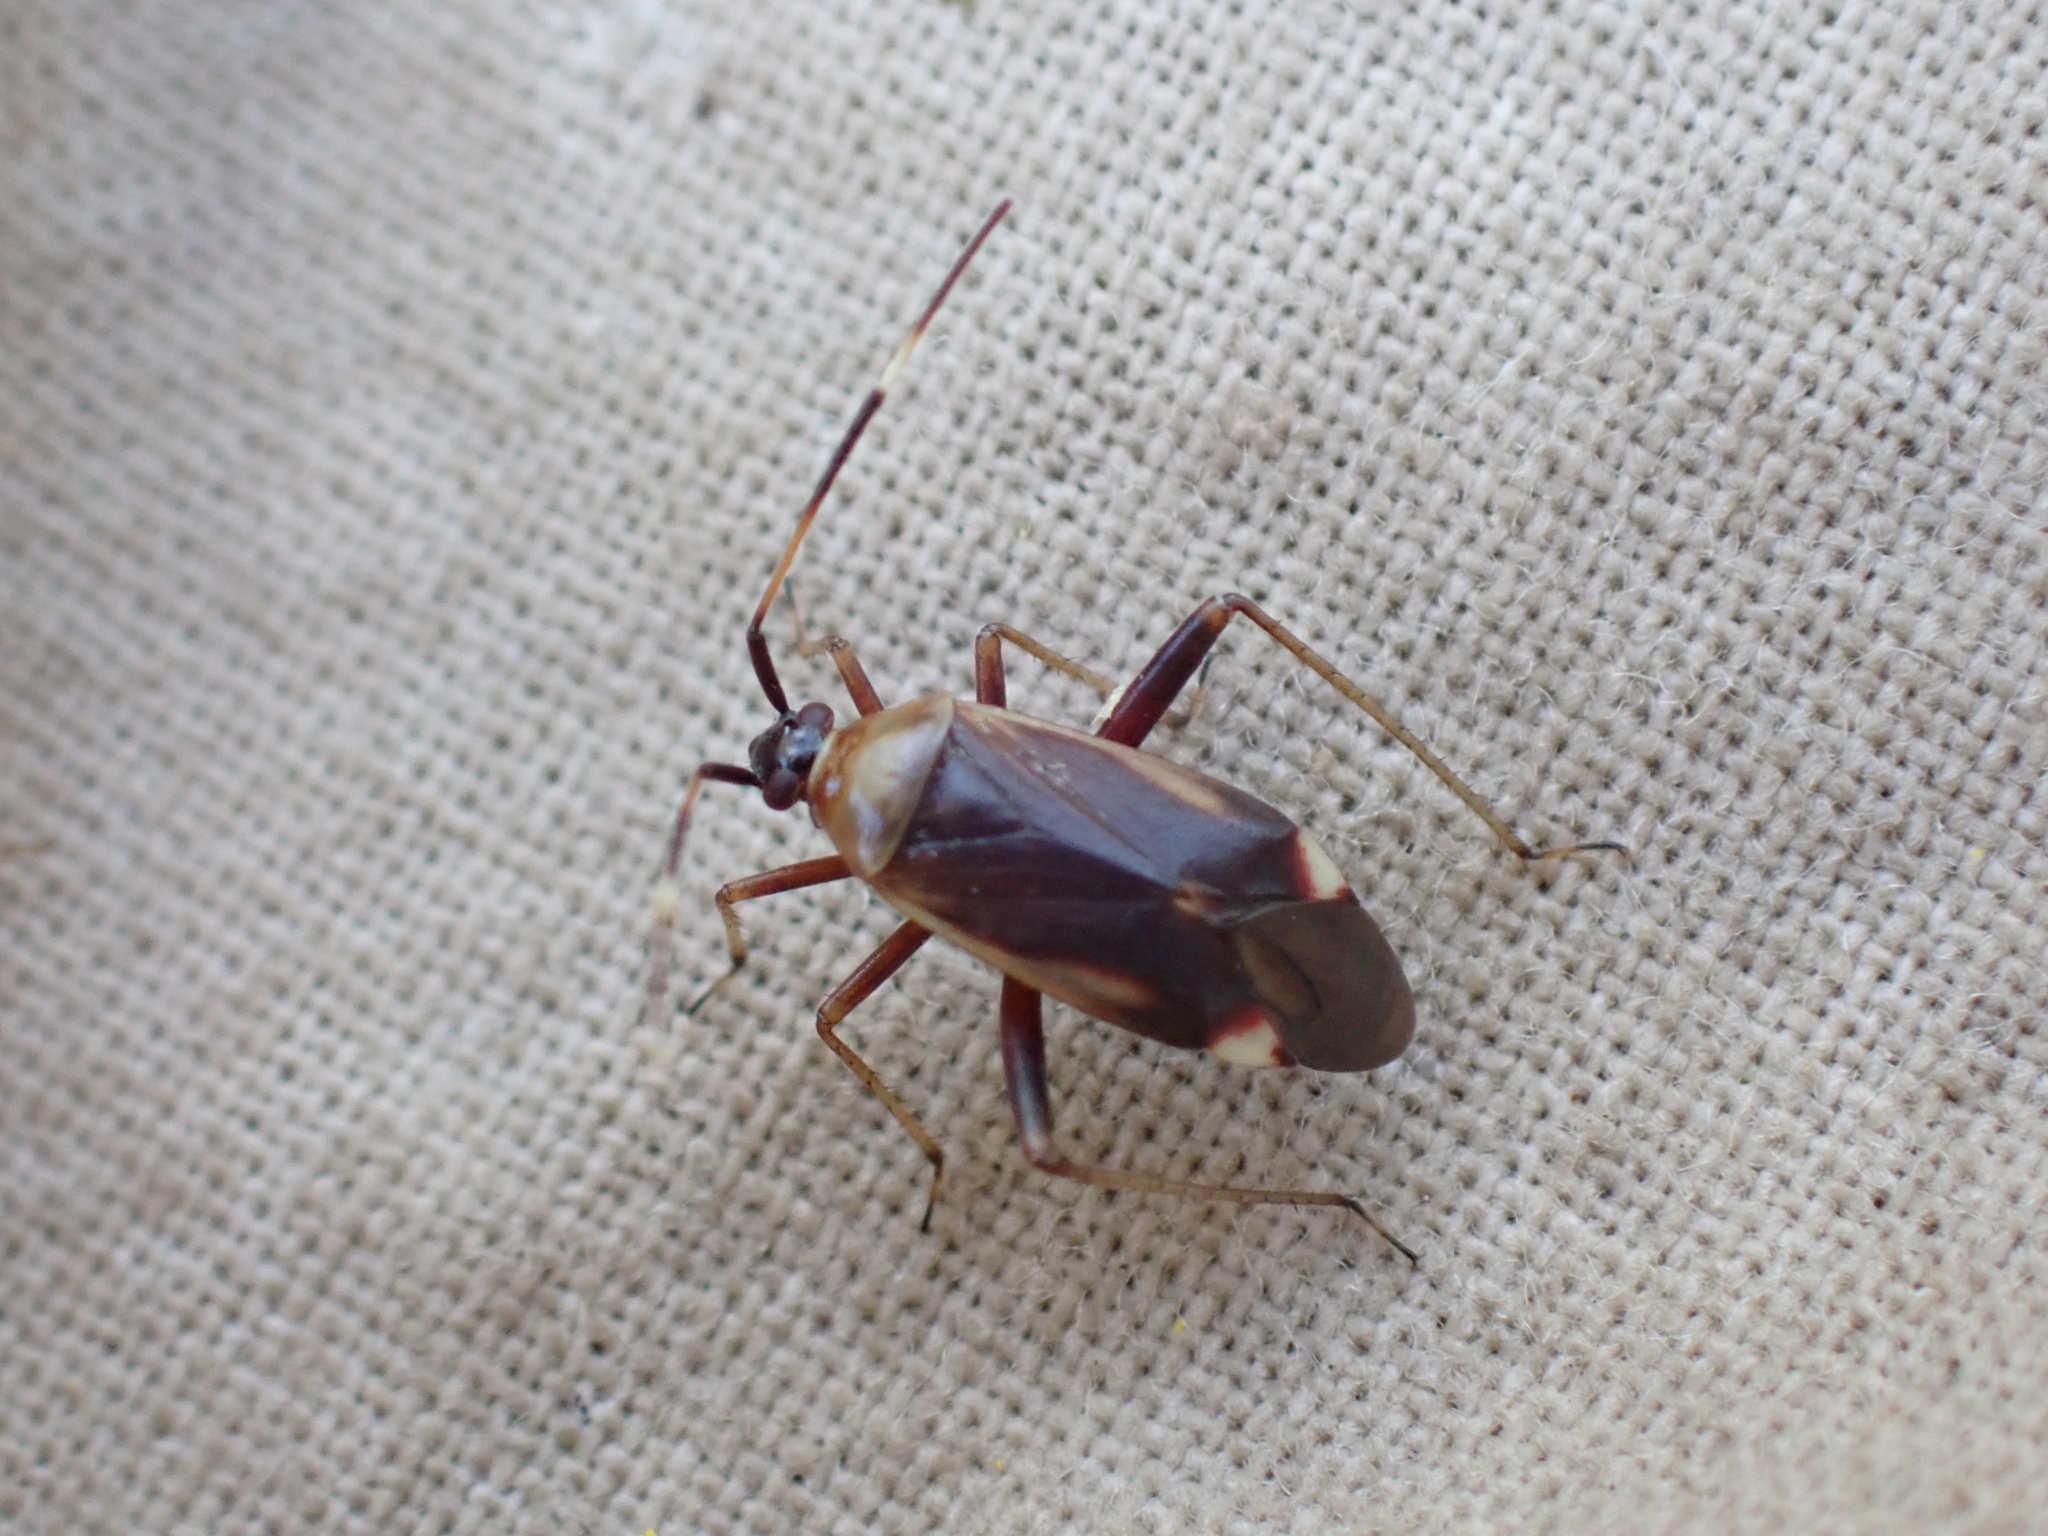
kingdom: Animalia
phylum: Arthropoda
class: Insecta
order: Hemiptera
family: Miridae
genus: Adelphocoris
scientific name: Adelphocoris rapidus
